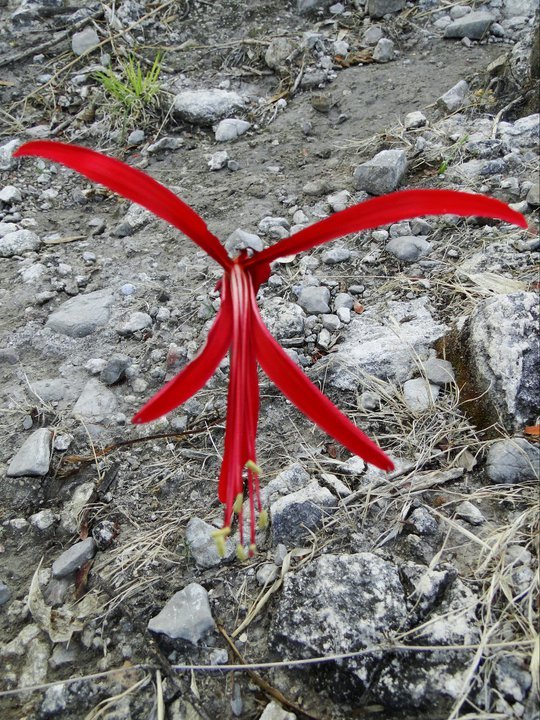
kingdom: Plantae
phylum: Tracheophyta
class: Liliopsida
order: Asparagales
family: Amaryllidaceae
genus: Zephyranthes
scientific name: Zephyranthes sprekeliopsis
